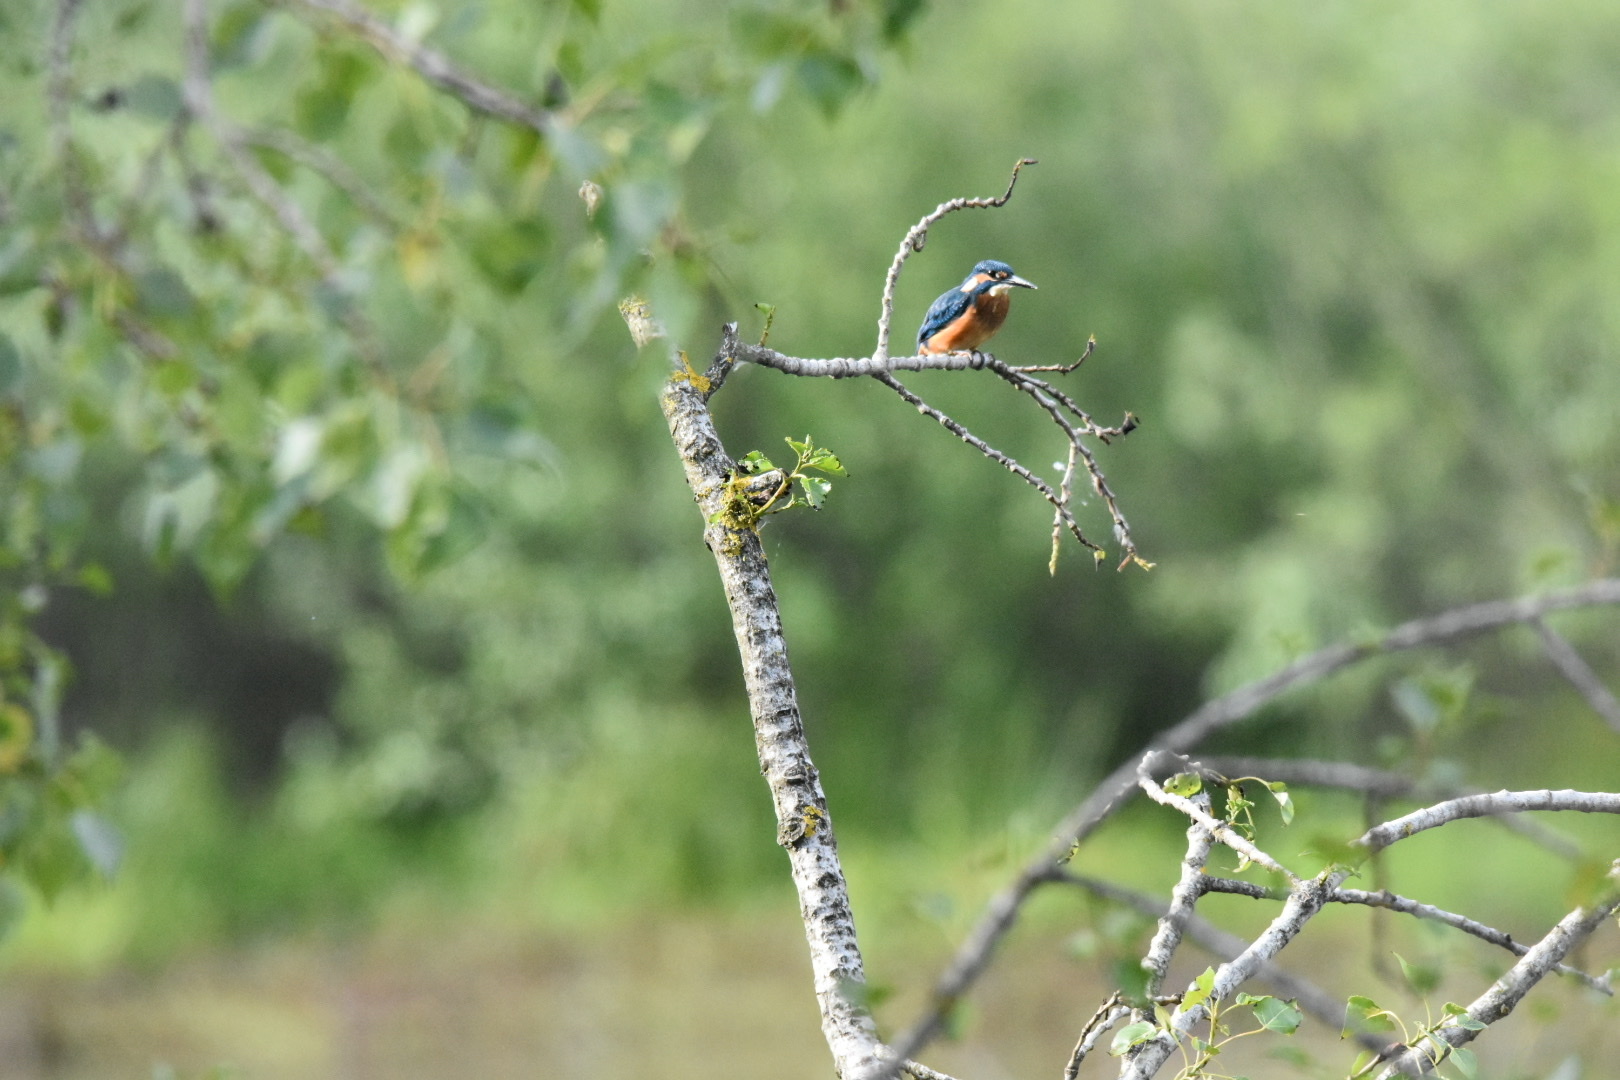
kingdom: Animalia
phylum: Chordata
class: Aves
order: Coraciiformes
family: Alcedinidae
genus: Alcedo
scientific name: Alcedo atthis
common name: Common kingfisher
